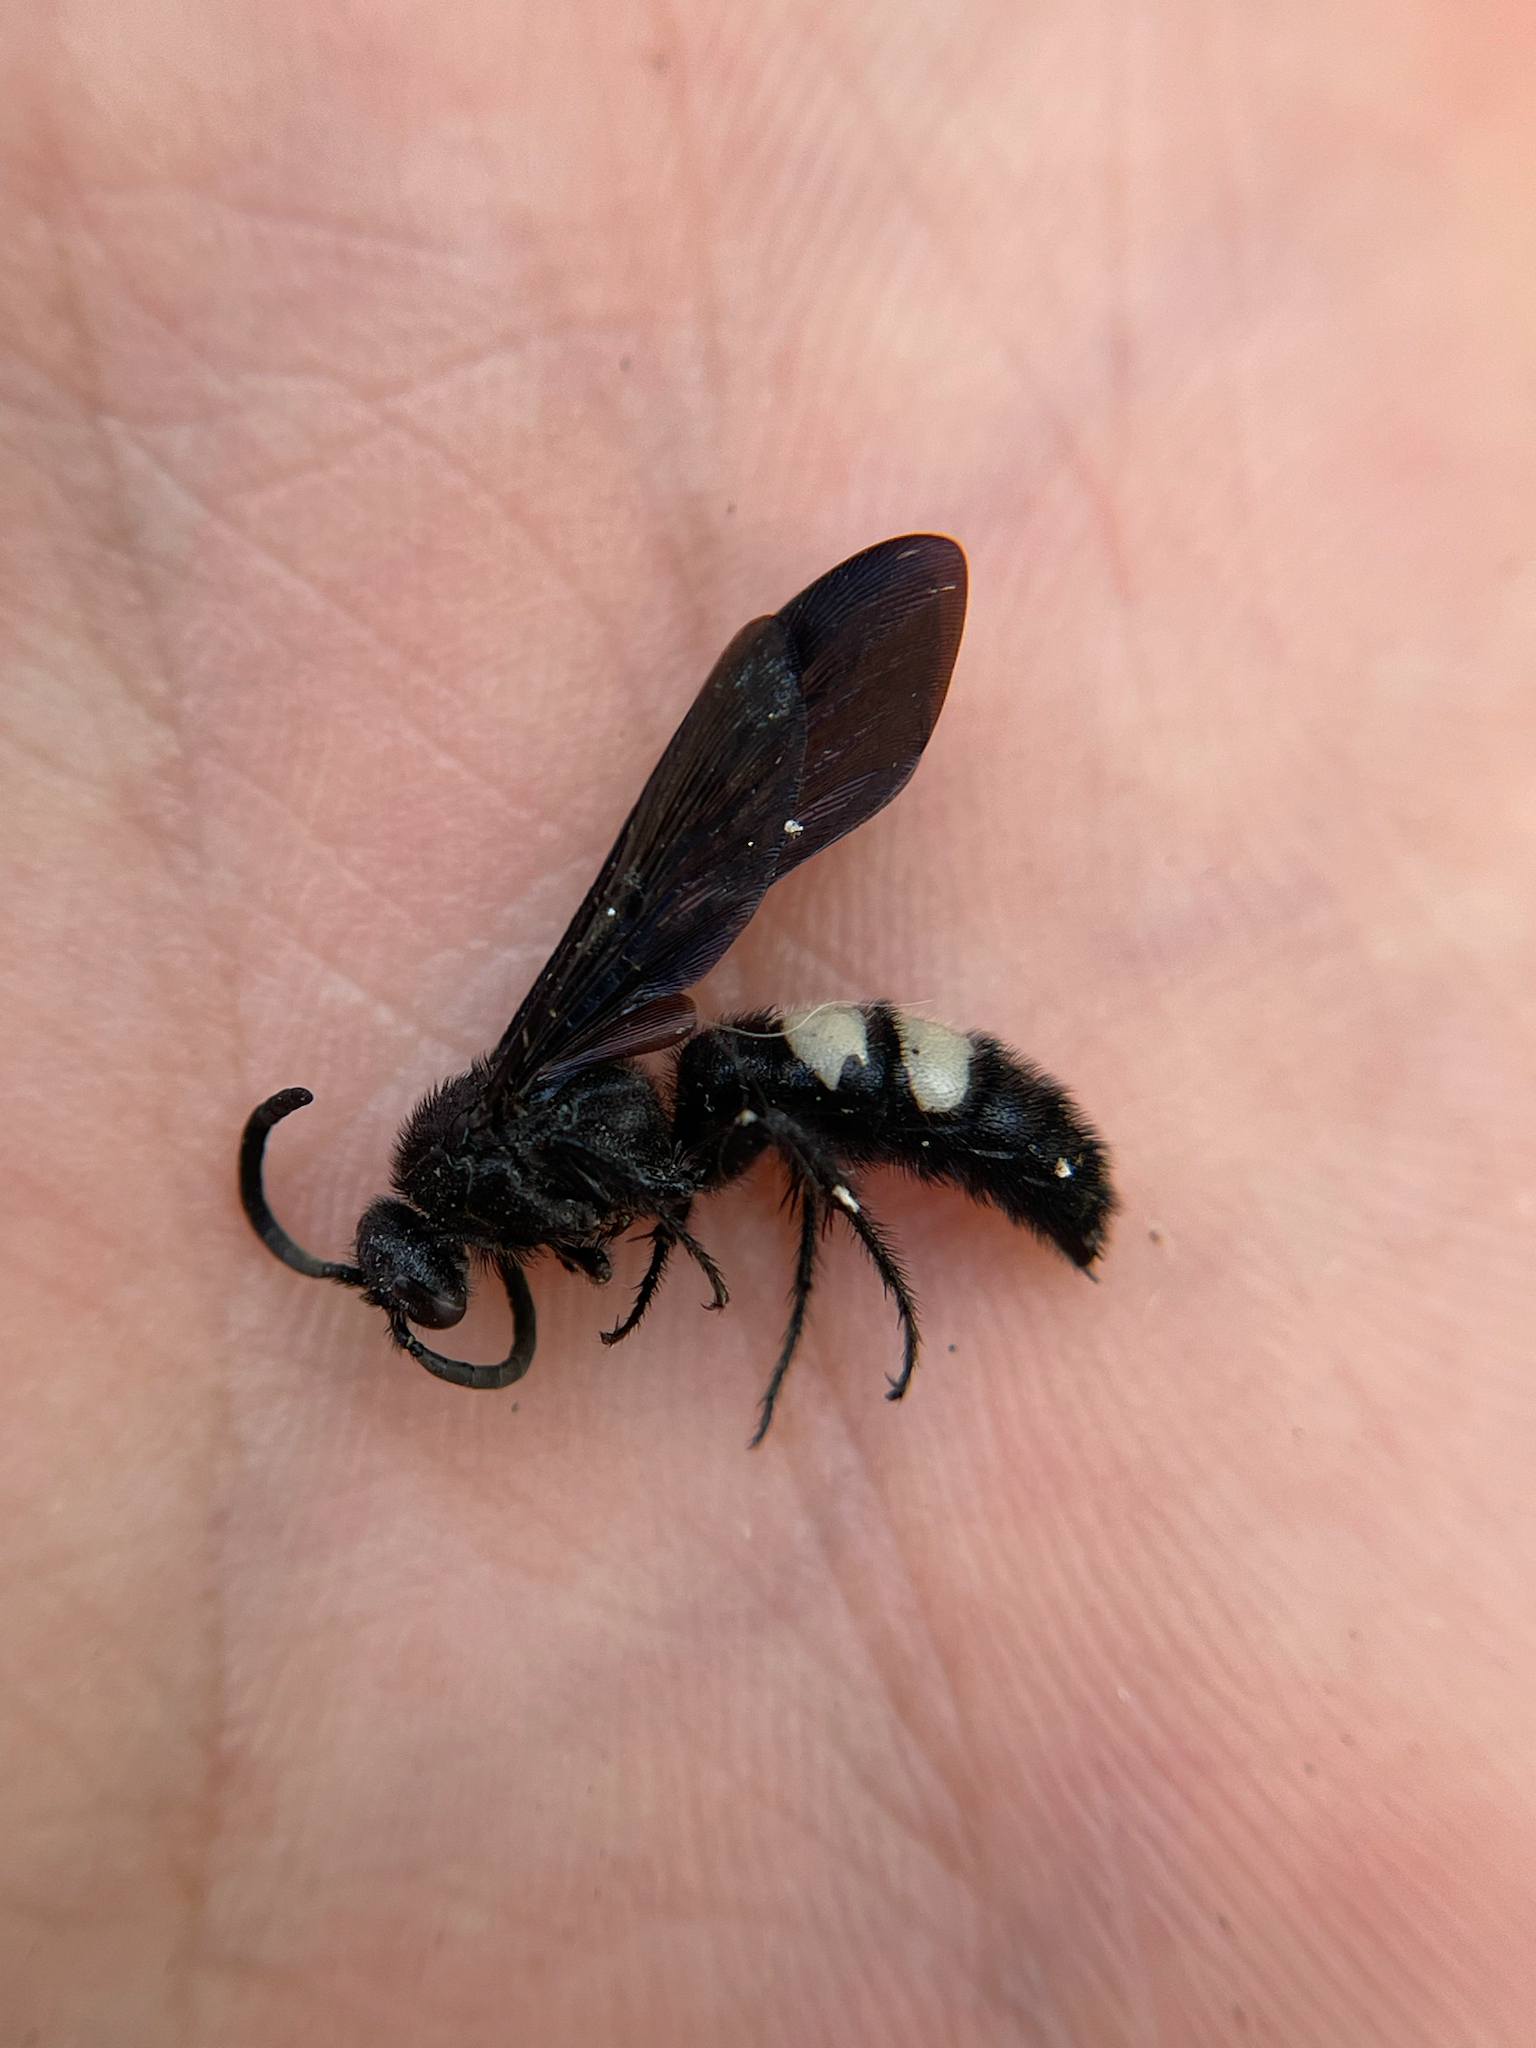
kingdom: Animalia
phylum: Arthropoda
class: Insecta
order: Hymenoptera
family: Scoliidae
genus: Scolia
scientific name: Scolia bicincta
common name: Double-banded scoliid wasp
